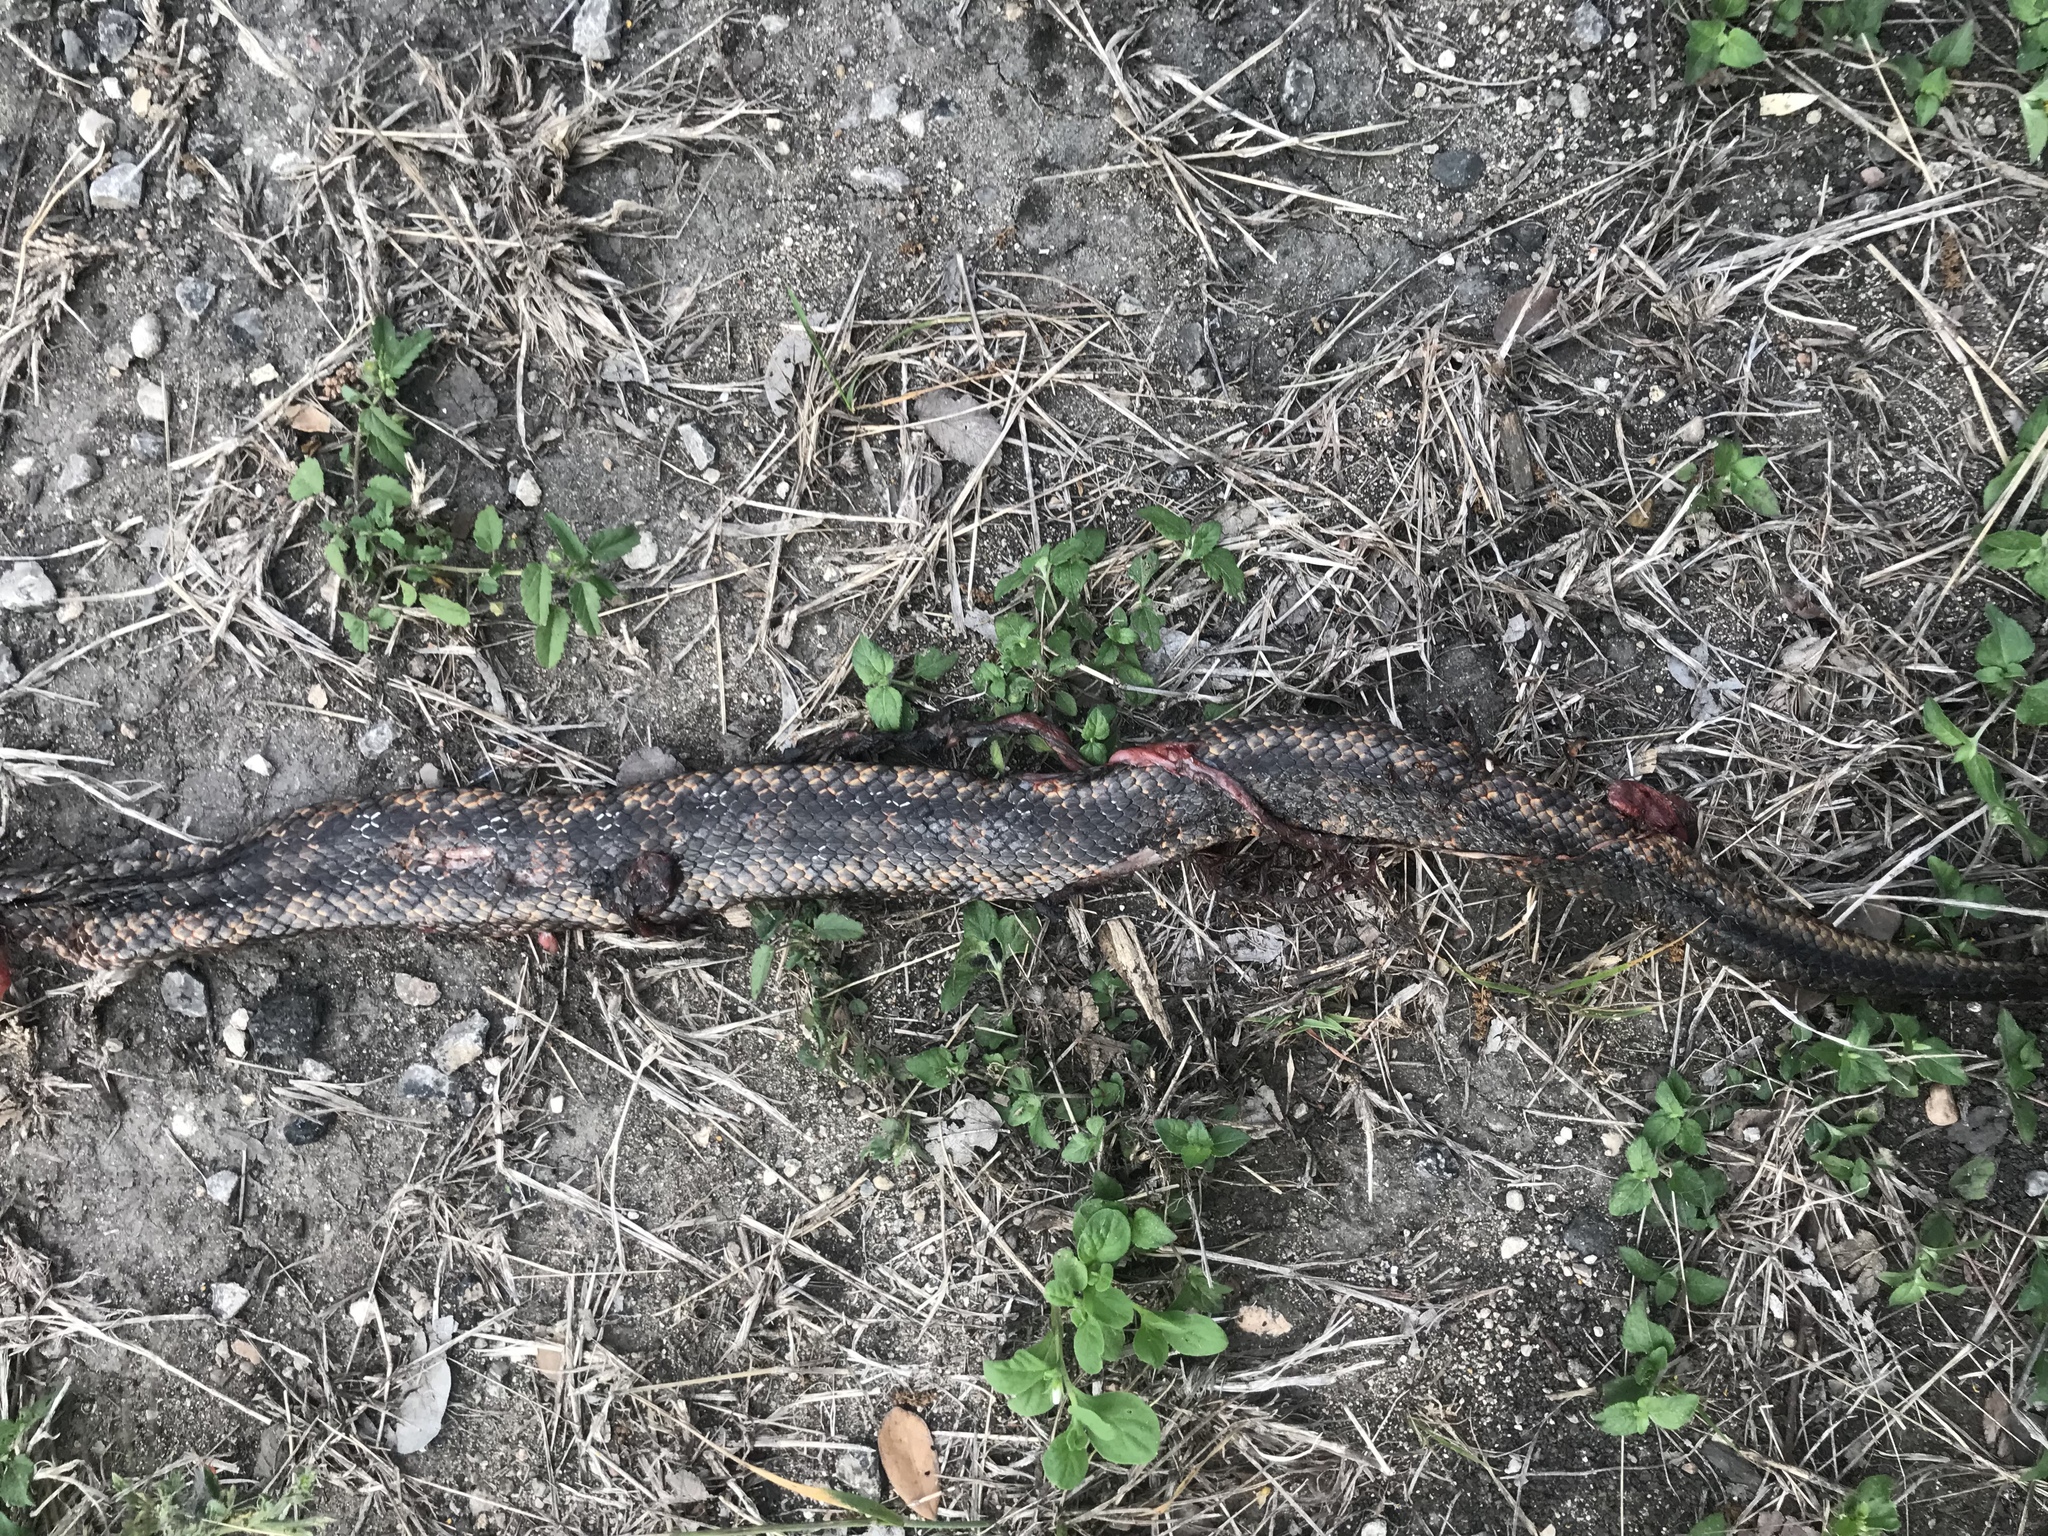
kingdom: Animalia
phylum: Chordata
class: Squamata
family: Colubridae
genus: Pantherophis
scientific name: Pantherophis obsoletus
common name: Black rat snake
